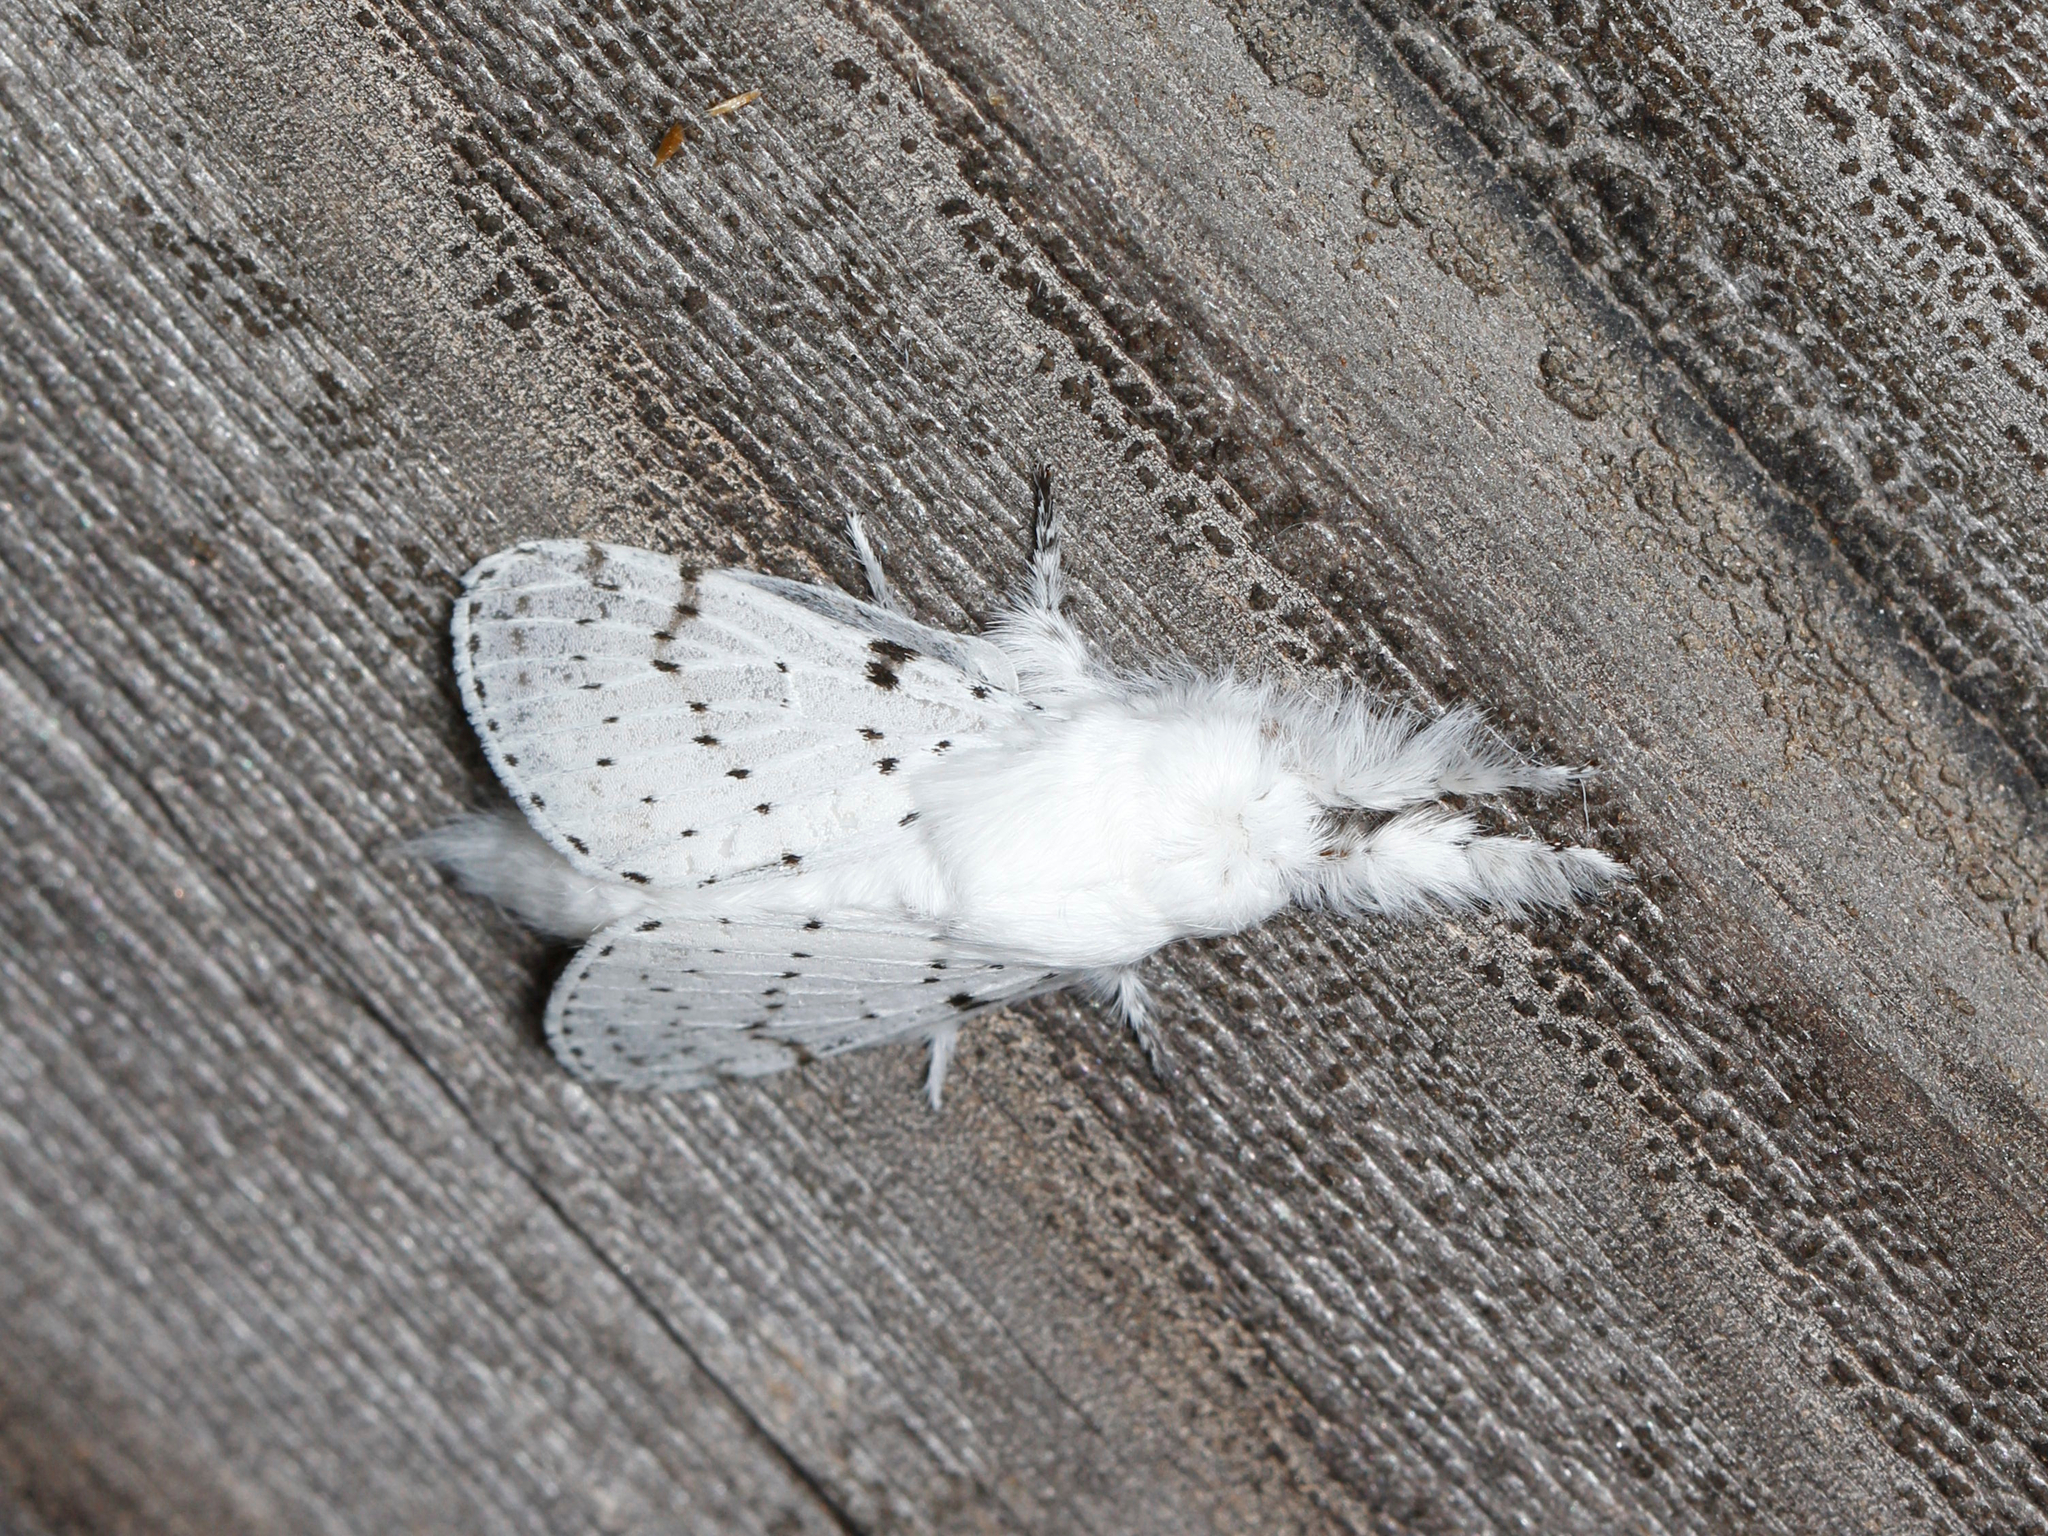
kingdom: Animalia
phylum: Arthropoda
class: Insecta
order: Lepidoptera
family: Lasiocampidae
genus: Artace
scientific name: Artace cribrarius
